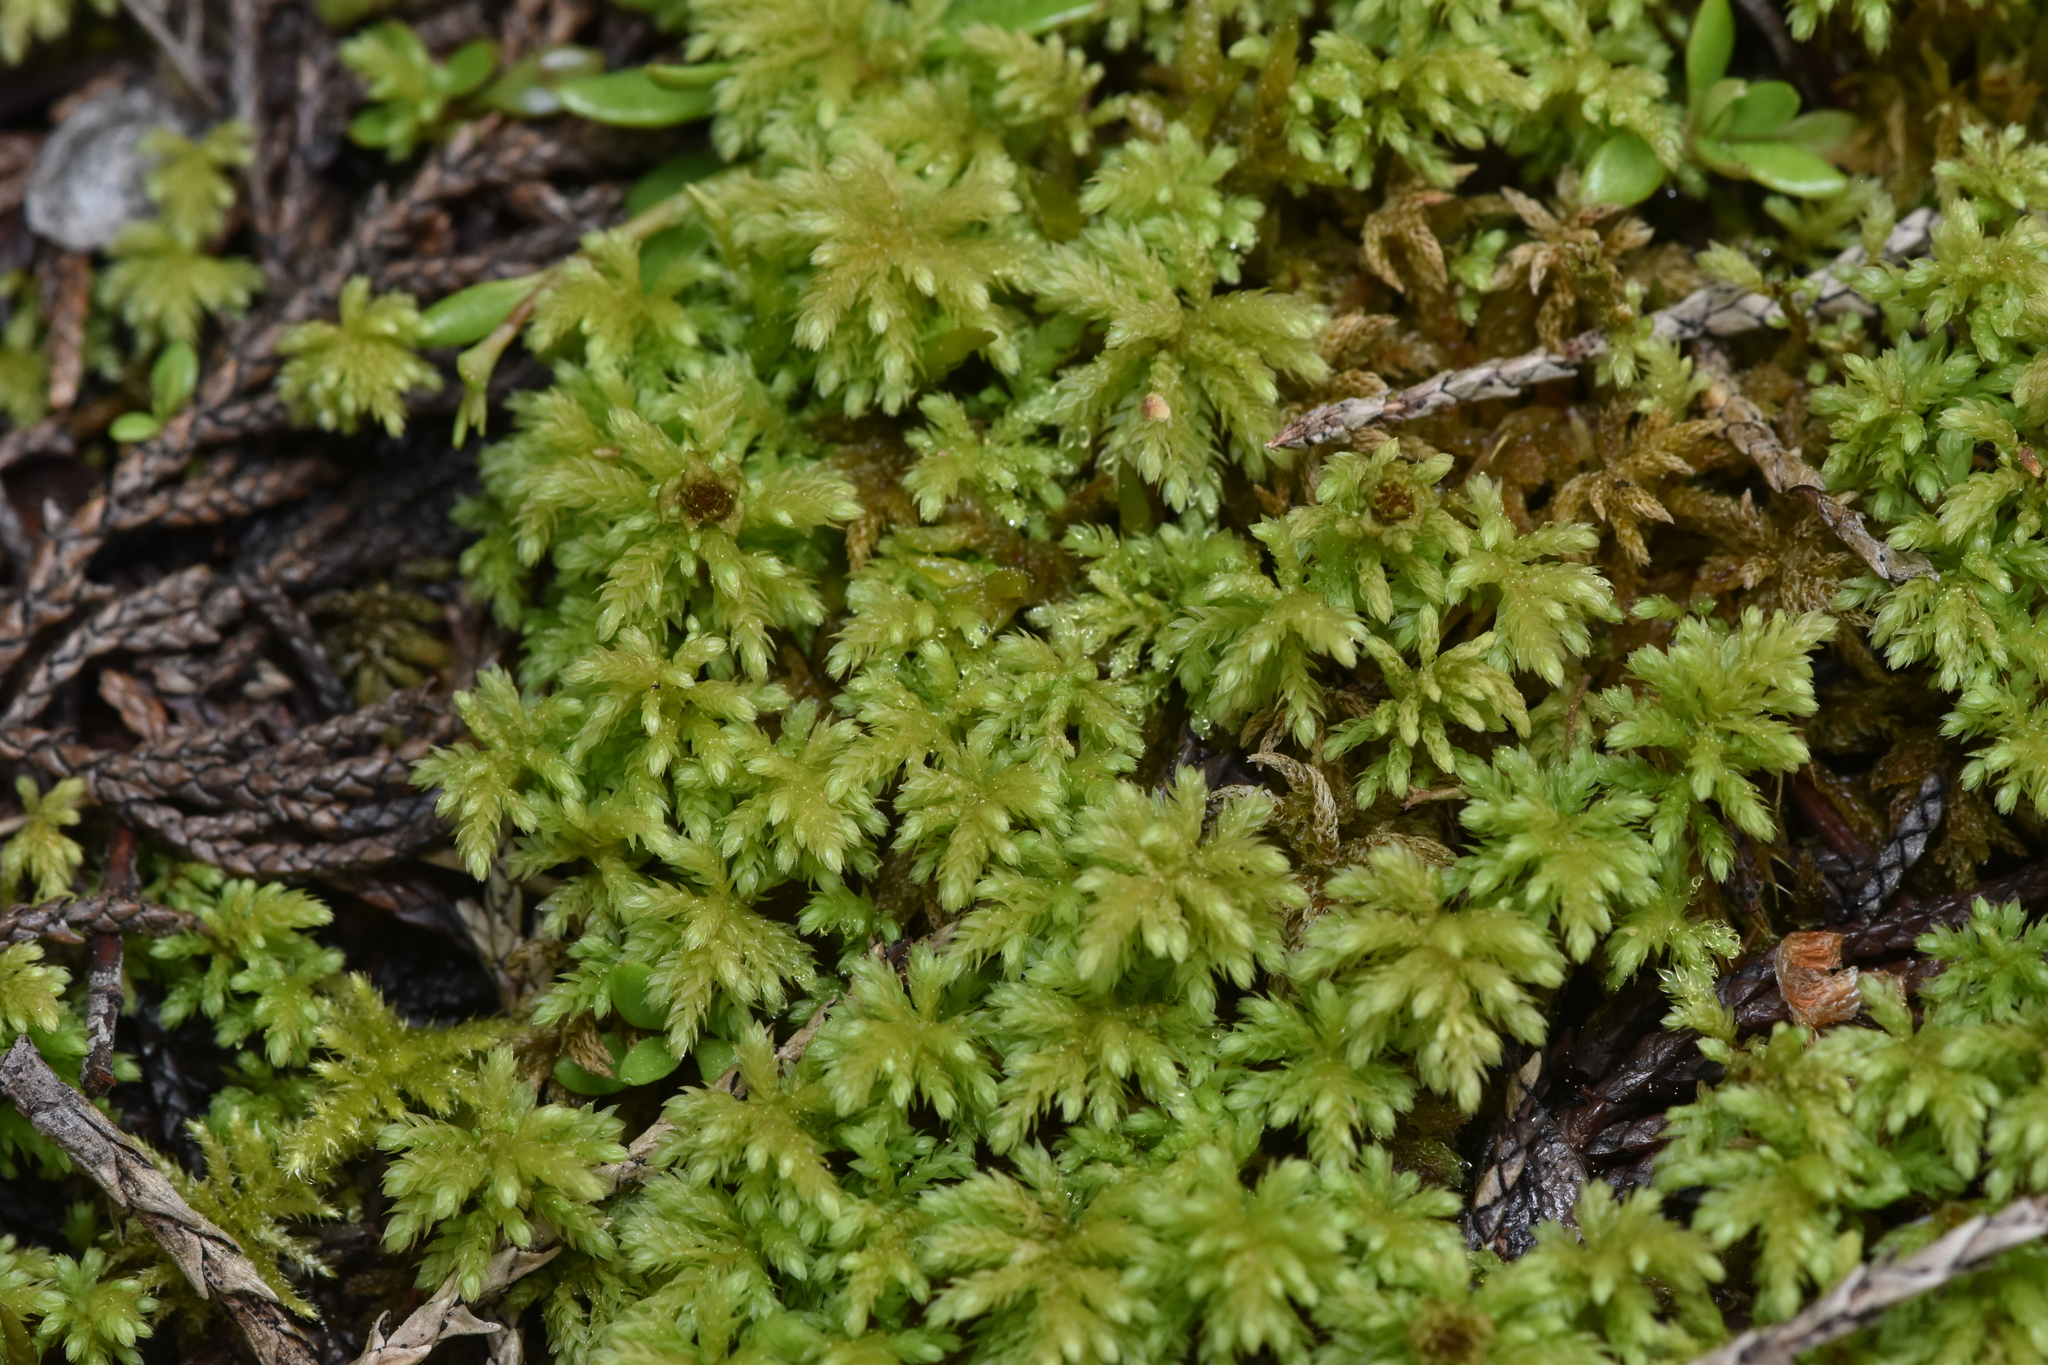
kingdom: Plantae
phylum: Bryophyta
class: Bryopsida
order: Bryales
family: Mniaceae
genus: Leucolepis
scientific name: Leucolepis acanthoneura
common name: Leucolepis umbrella moss
